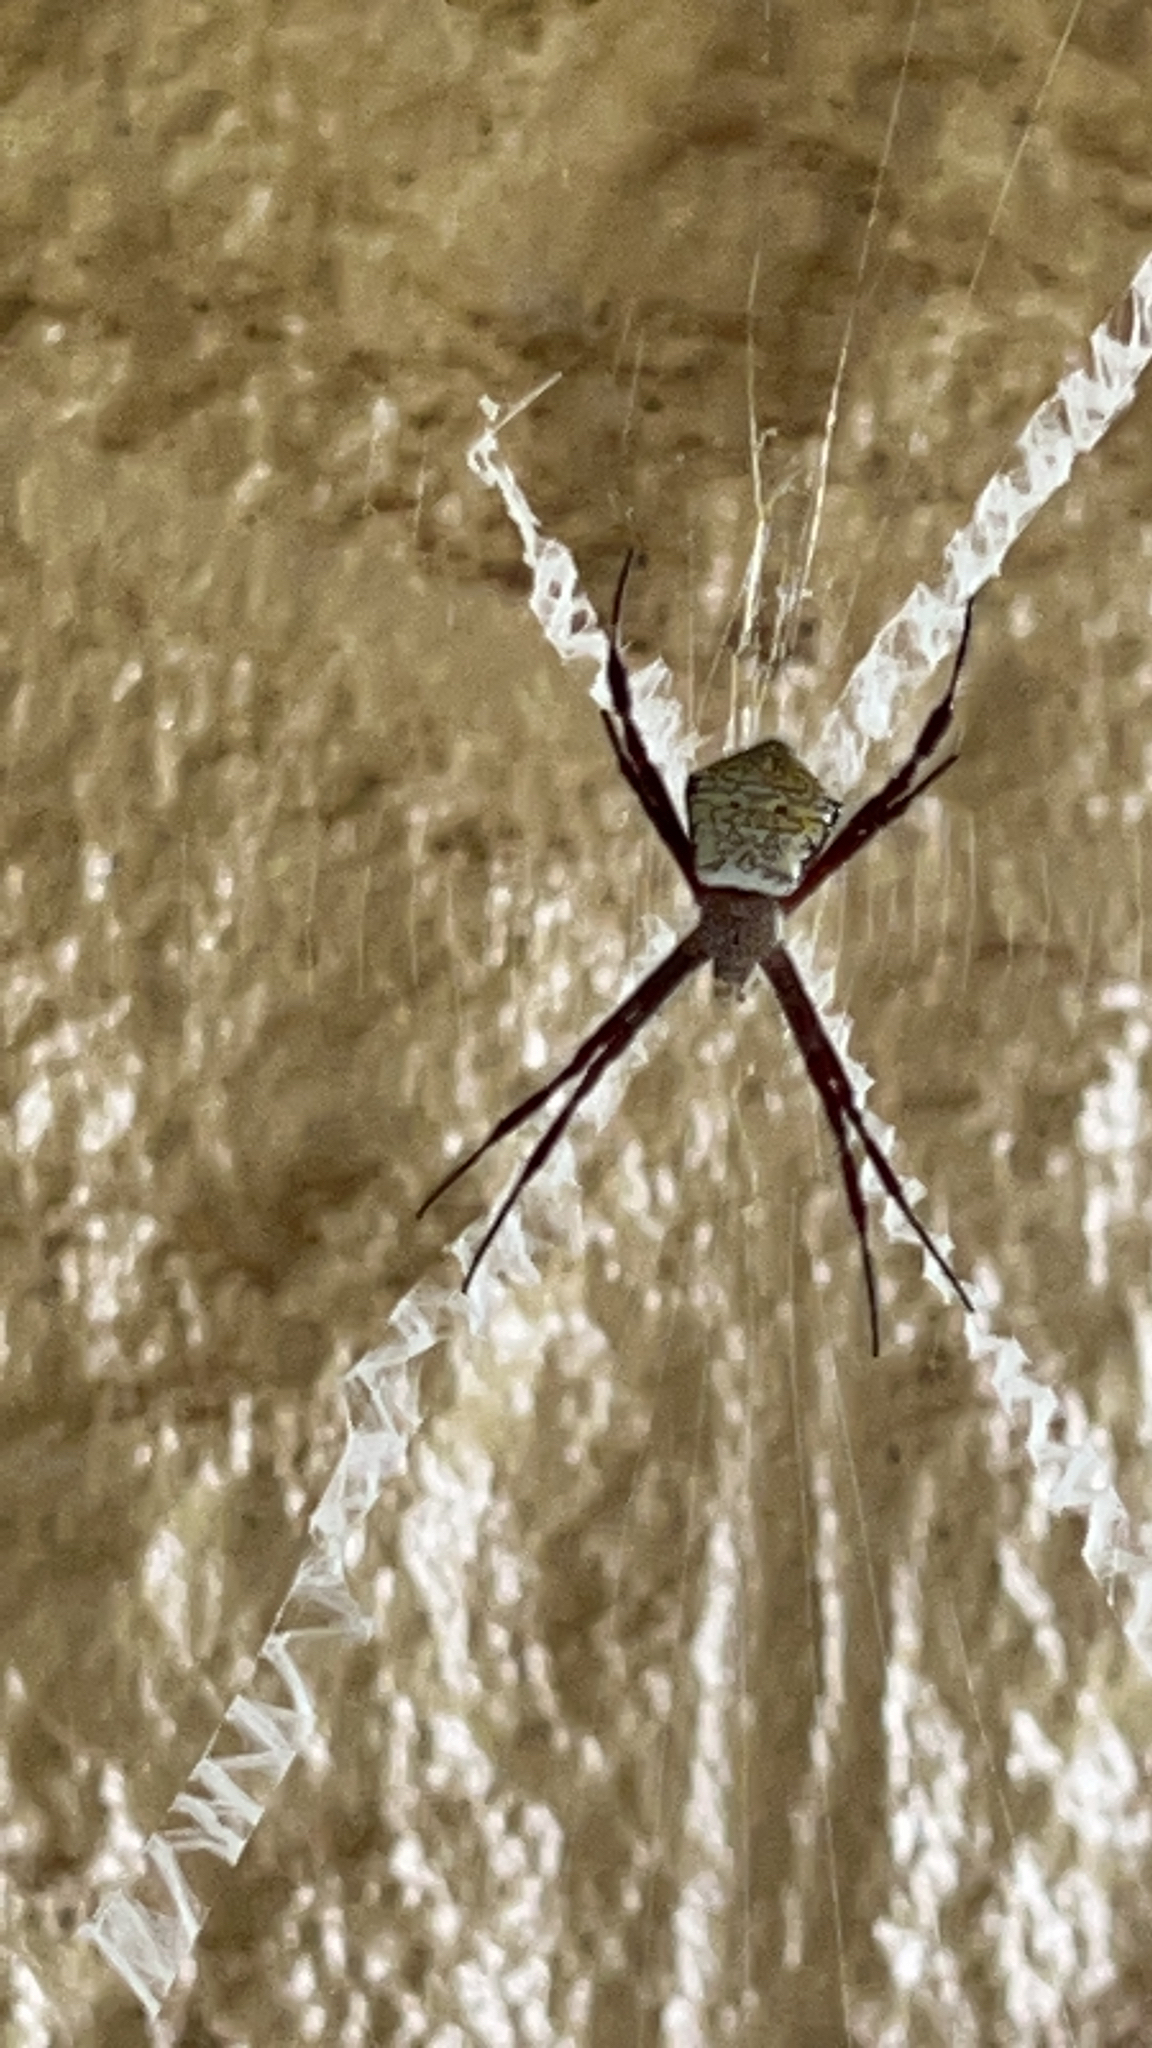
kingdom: Animalia
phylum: Arthropoda
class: Arachnida
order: Araneae
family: Araneidae
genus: Argiope
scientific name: Argiope appensa
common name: Garden spider
